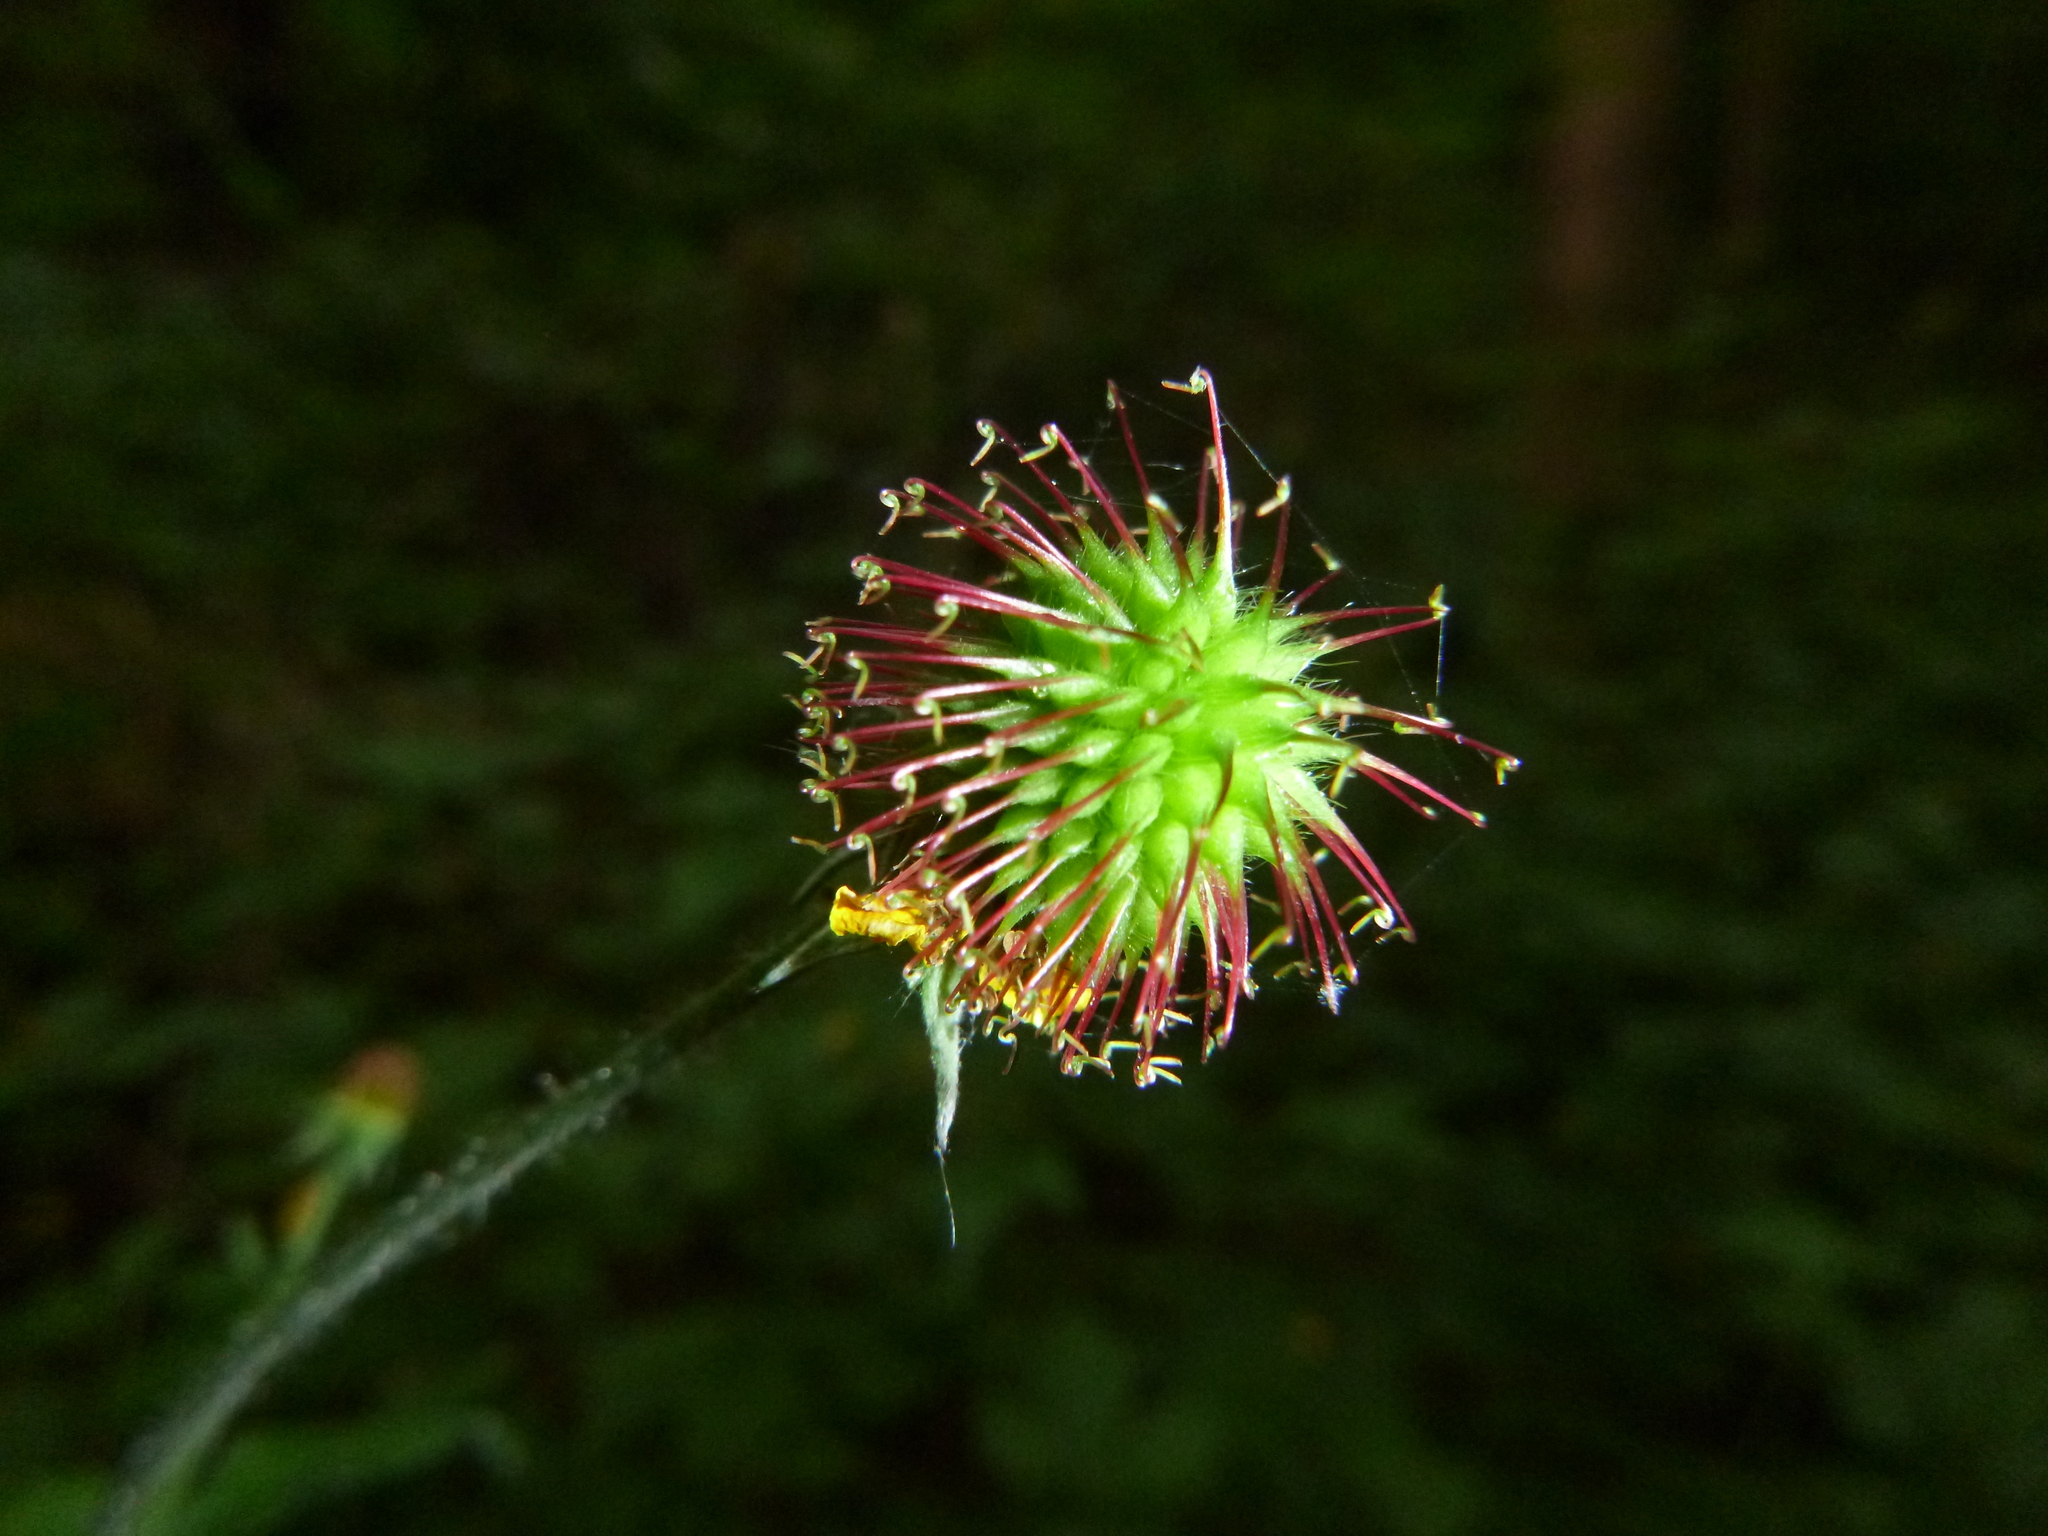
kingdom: Plantae
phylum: Tracheophyta
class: Magnoliopsida
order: Rosales
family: Rosaceae
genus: Geum
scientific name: Geum urbanum
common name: Wood avens
